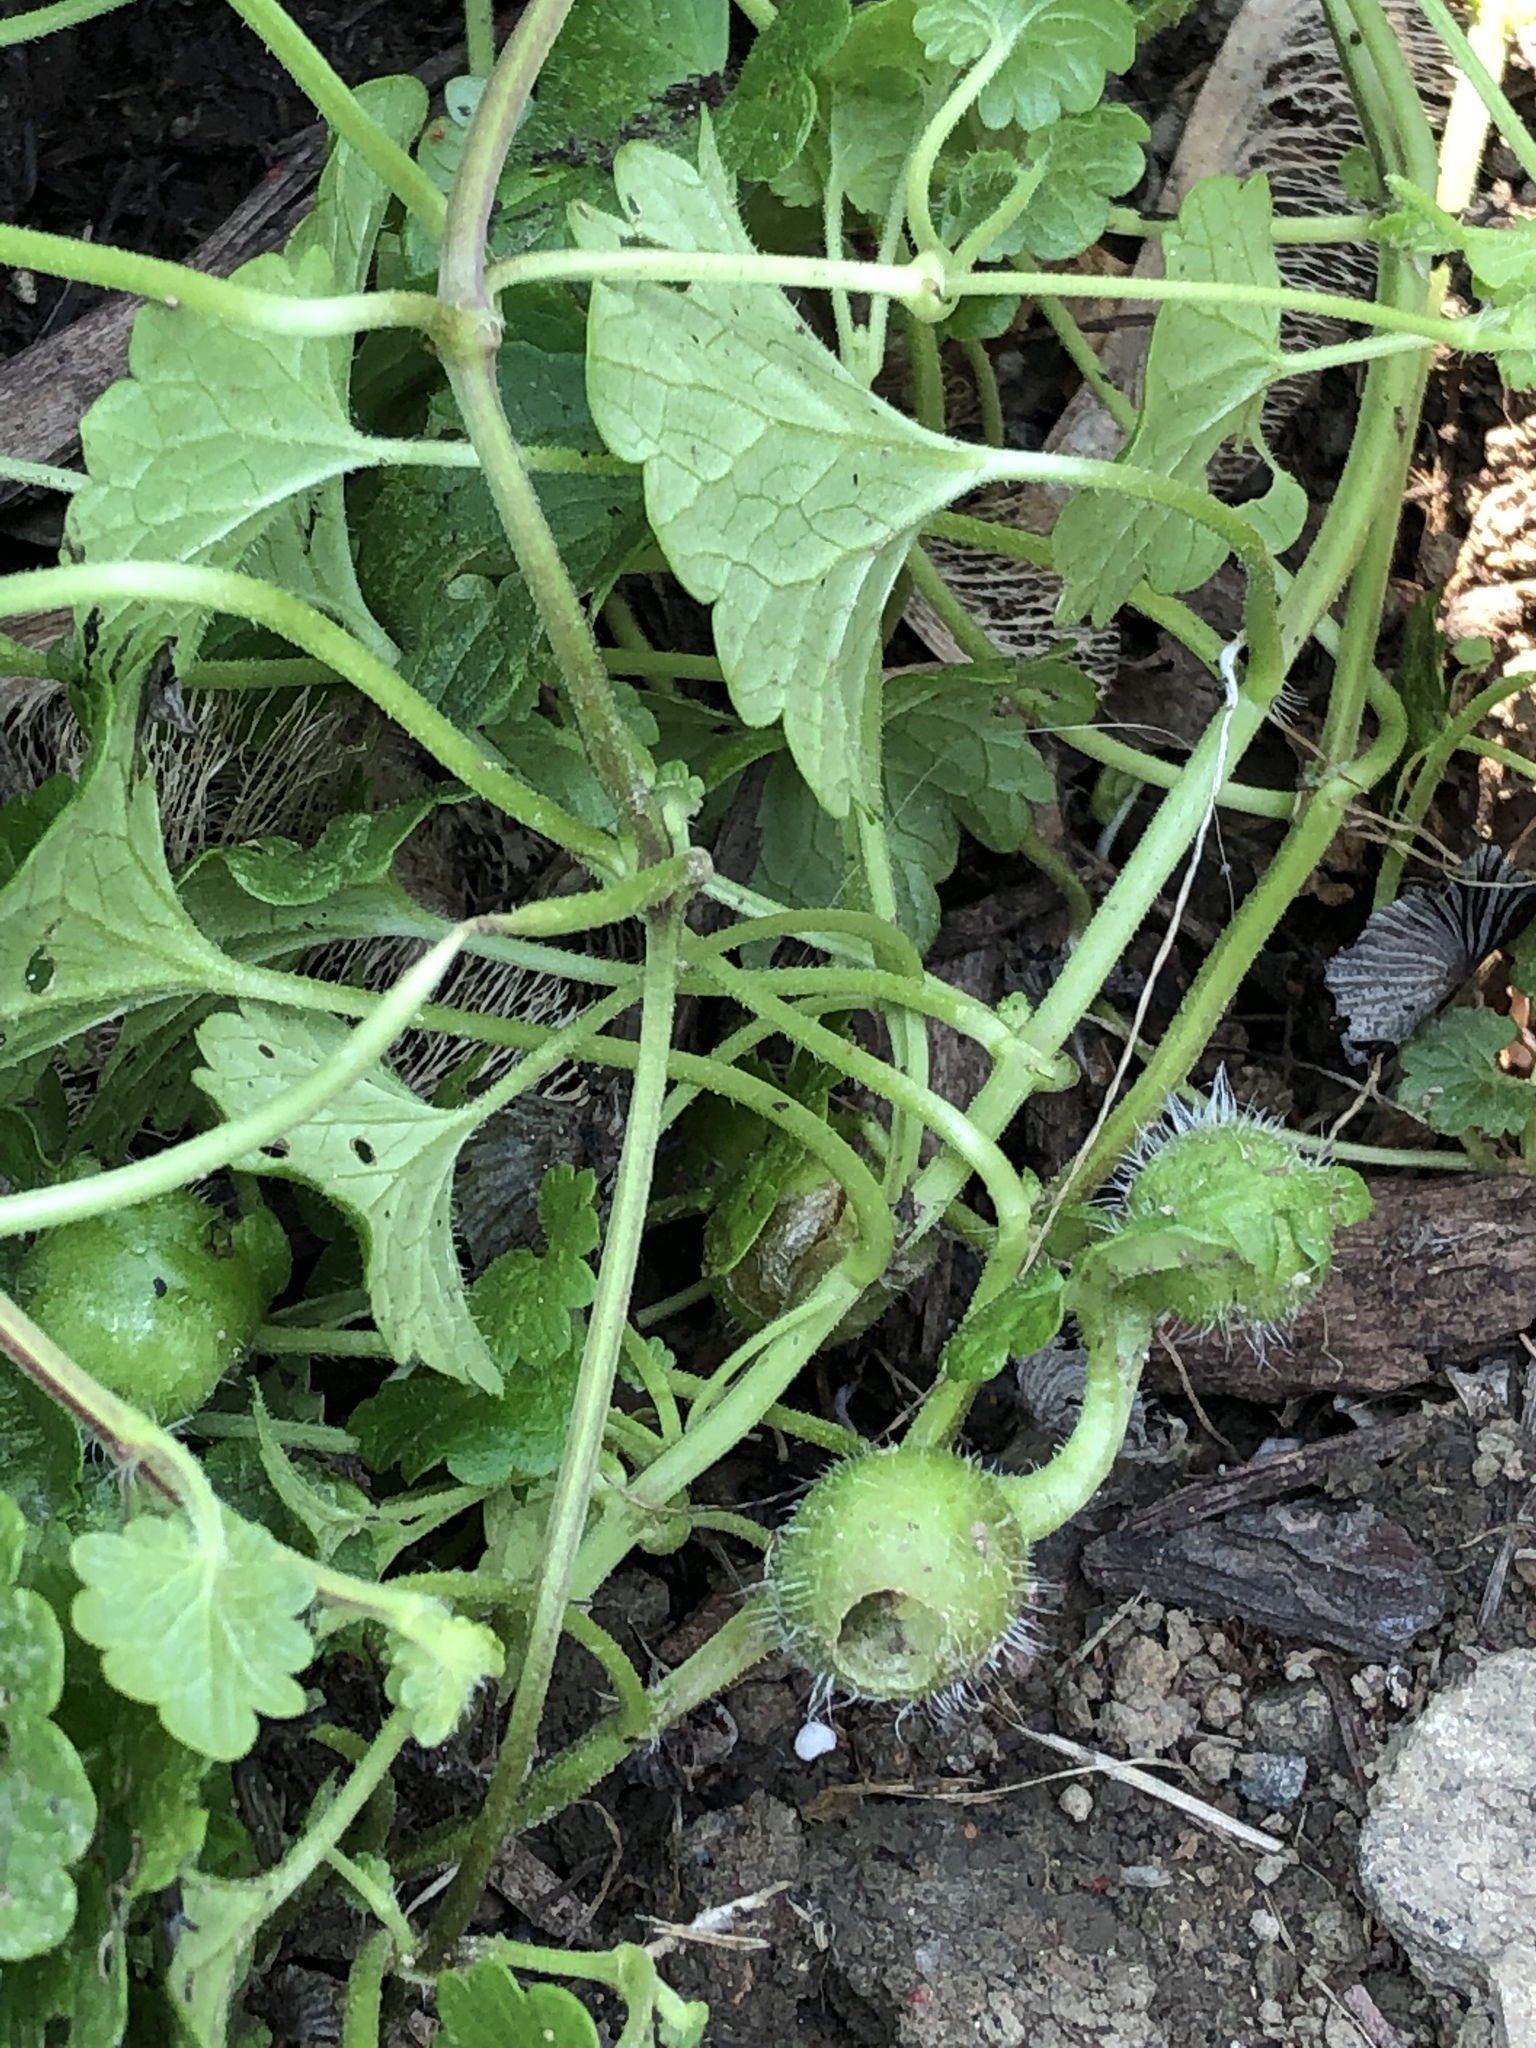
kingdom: Animalia
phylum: Arthropoda
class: Insecta
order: Hymenoptera
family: Cynipidae
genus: Liposthenes
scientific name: Liposthenes glechomae
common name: Gall wasp
